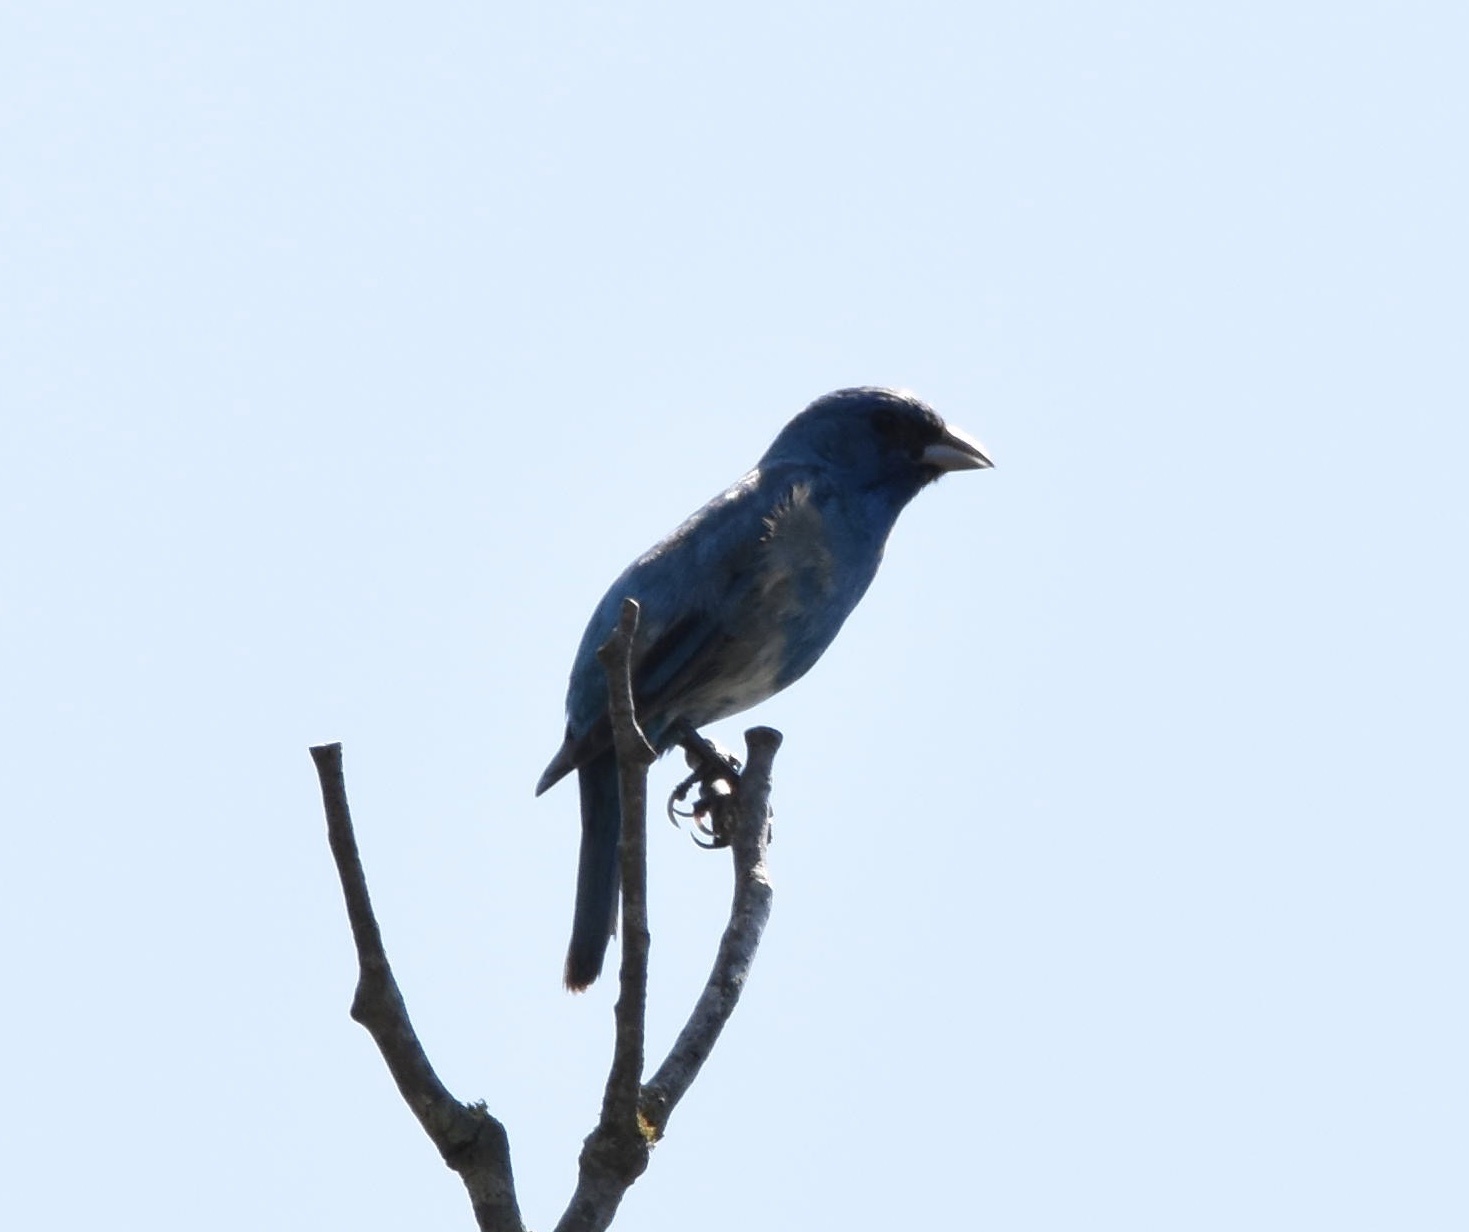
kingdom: Animalia
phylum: Chordata
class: Aves
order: Passeriformes
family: Cardinalidae
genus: Passerina
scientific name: Passerina cyanea
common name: Indigo bunting
